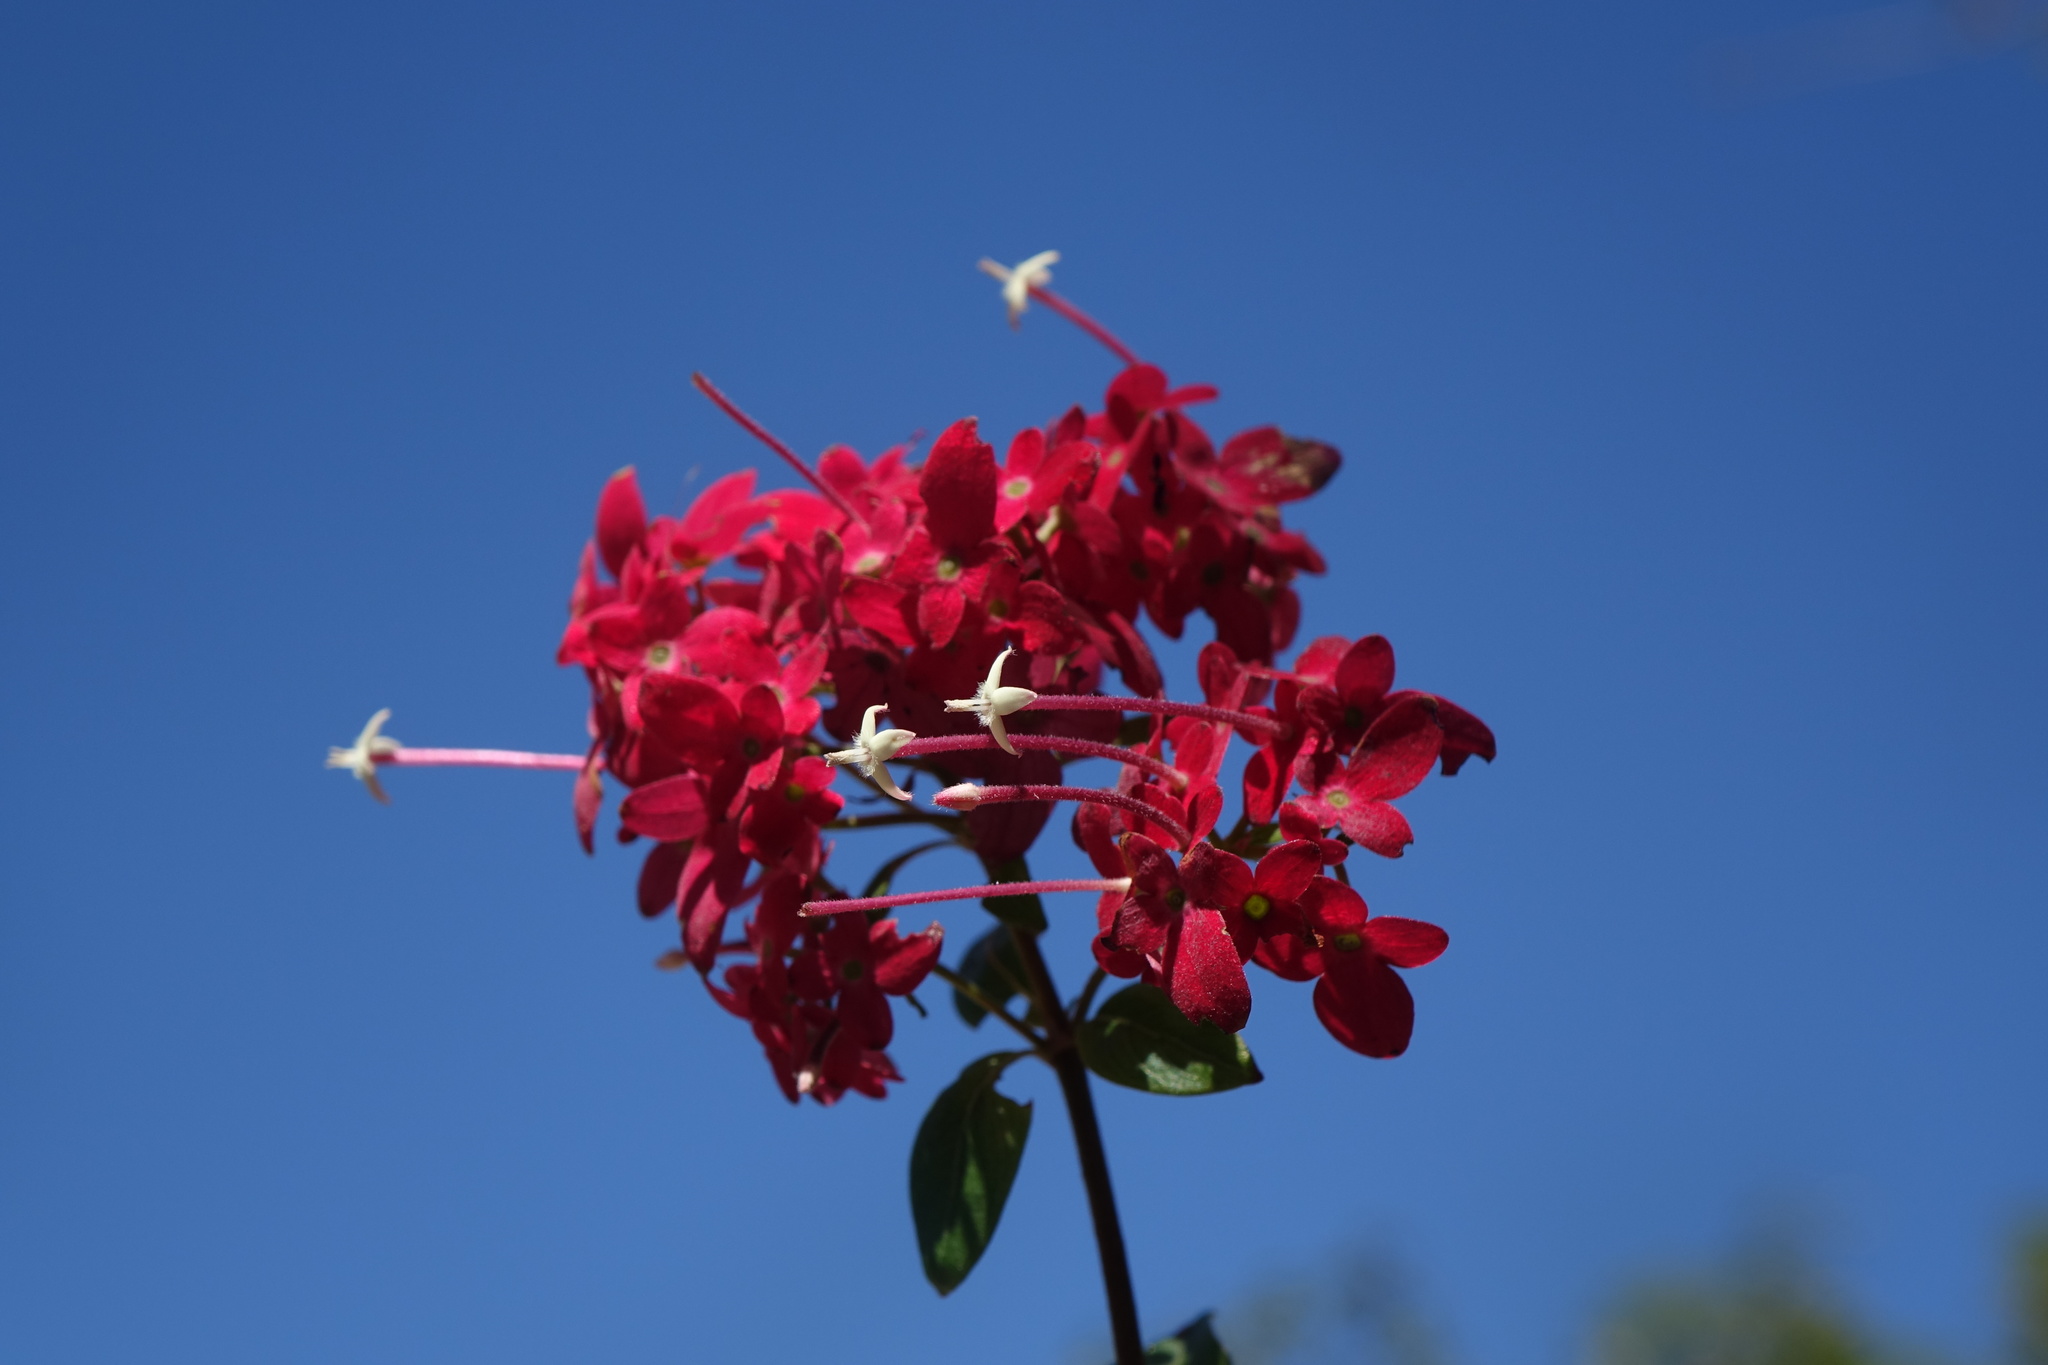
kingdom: Plantae
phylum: Tracheophyta
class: Magnoliopsida
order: Gentianales
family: Rubiaceae
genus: Paracarphalea
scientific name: Paracarphalea pervilleana
